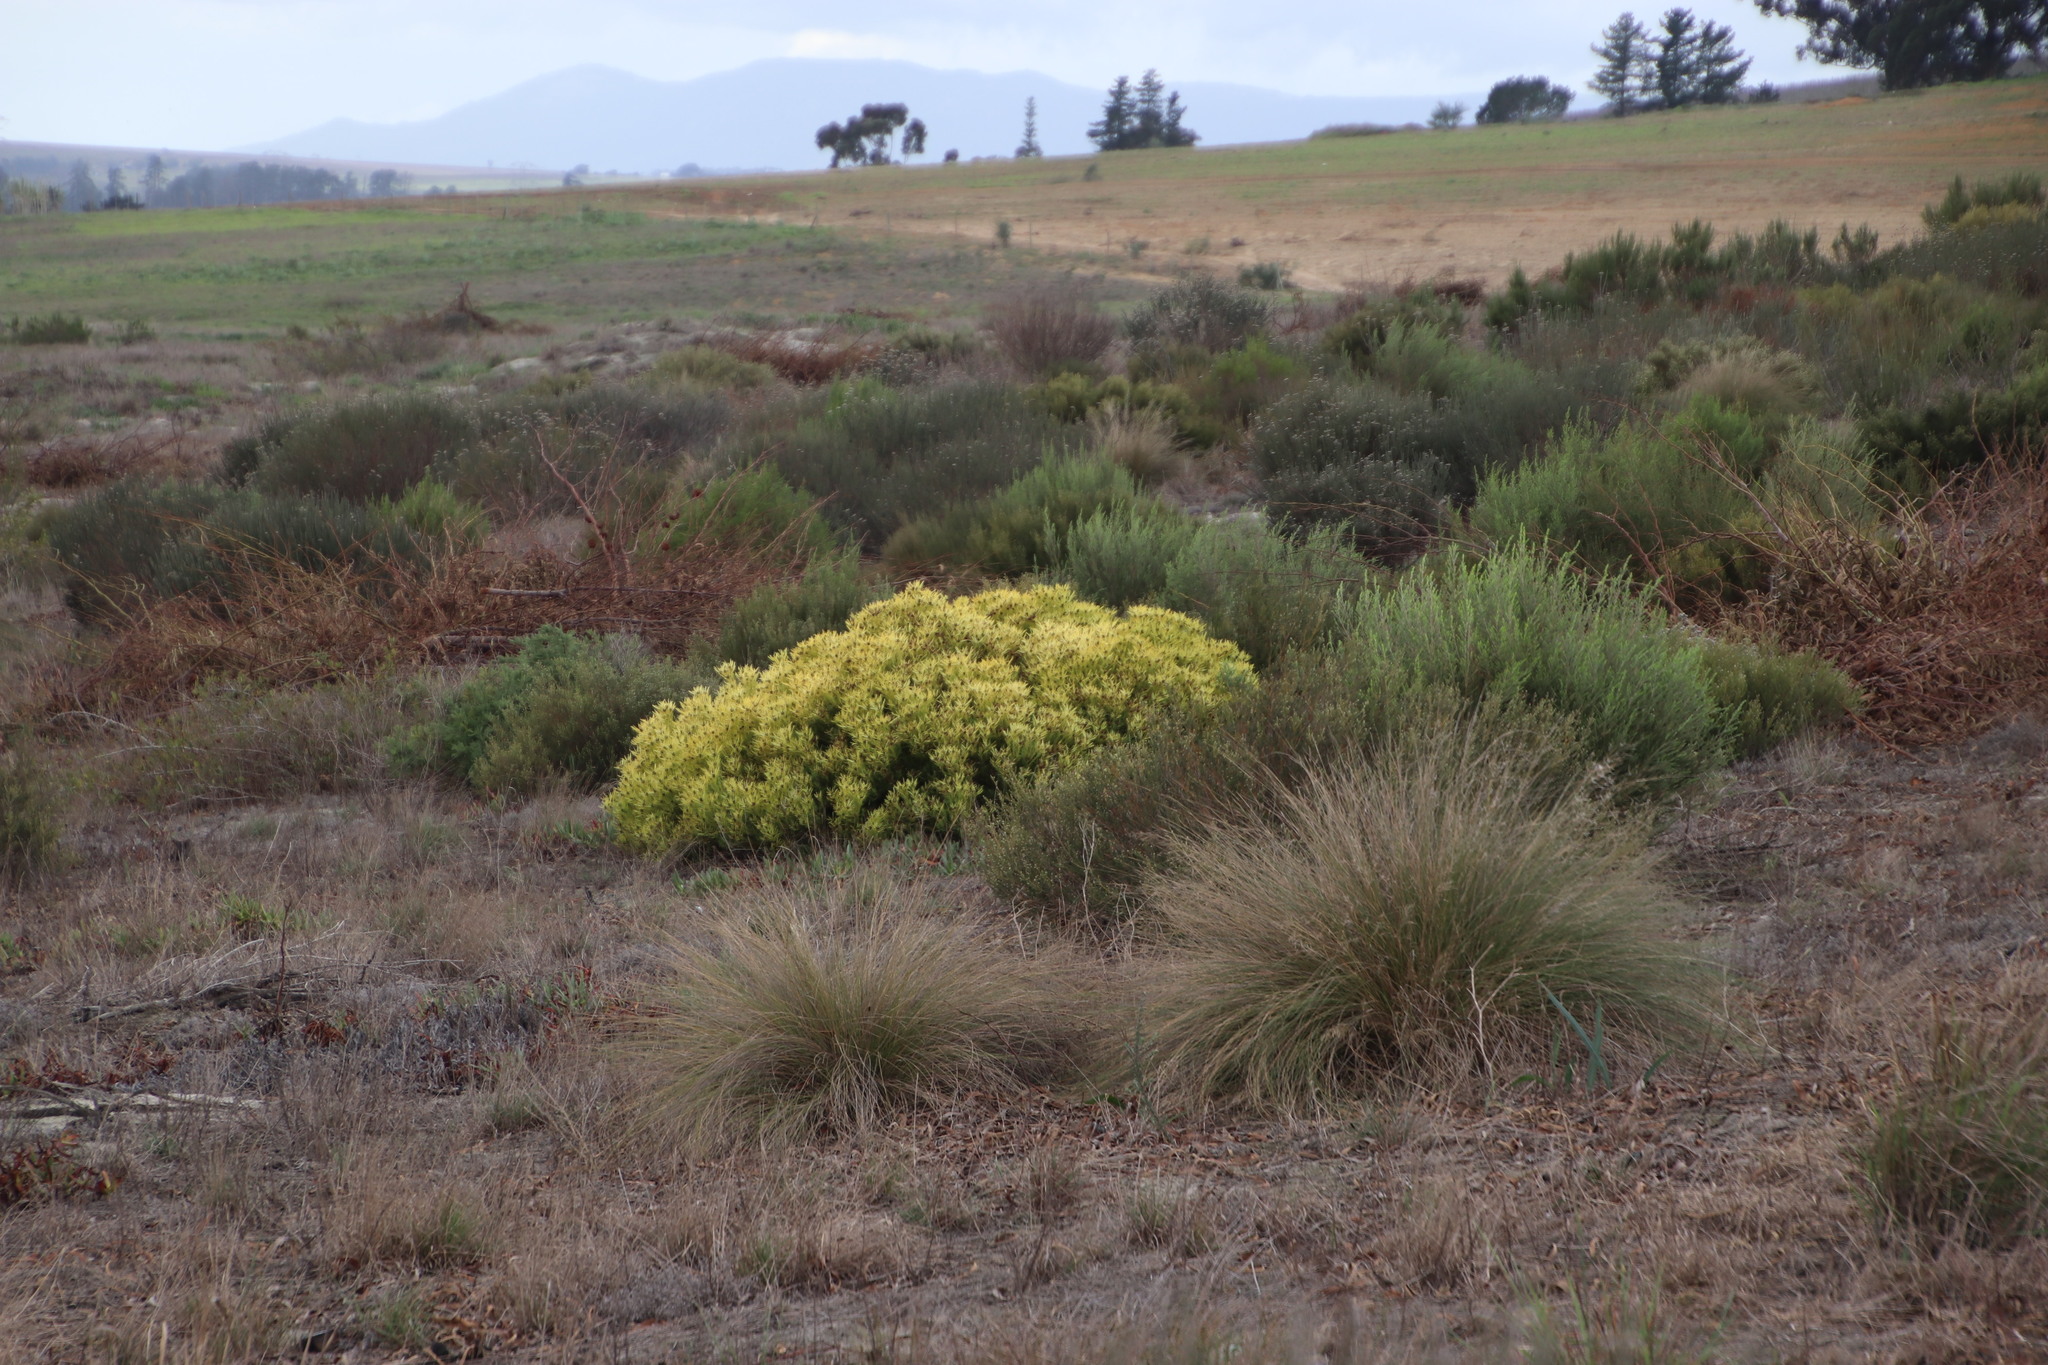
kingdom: Plantae
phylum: Tracheophyta
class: Magnoliopsida
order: Proteales
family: Proteaceae
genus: Leucadendron
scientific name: Leucadendron salignum
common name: Common sunshine conebush
